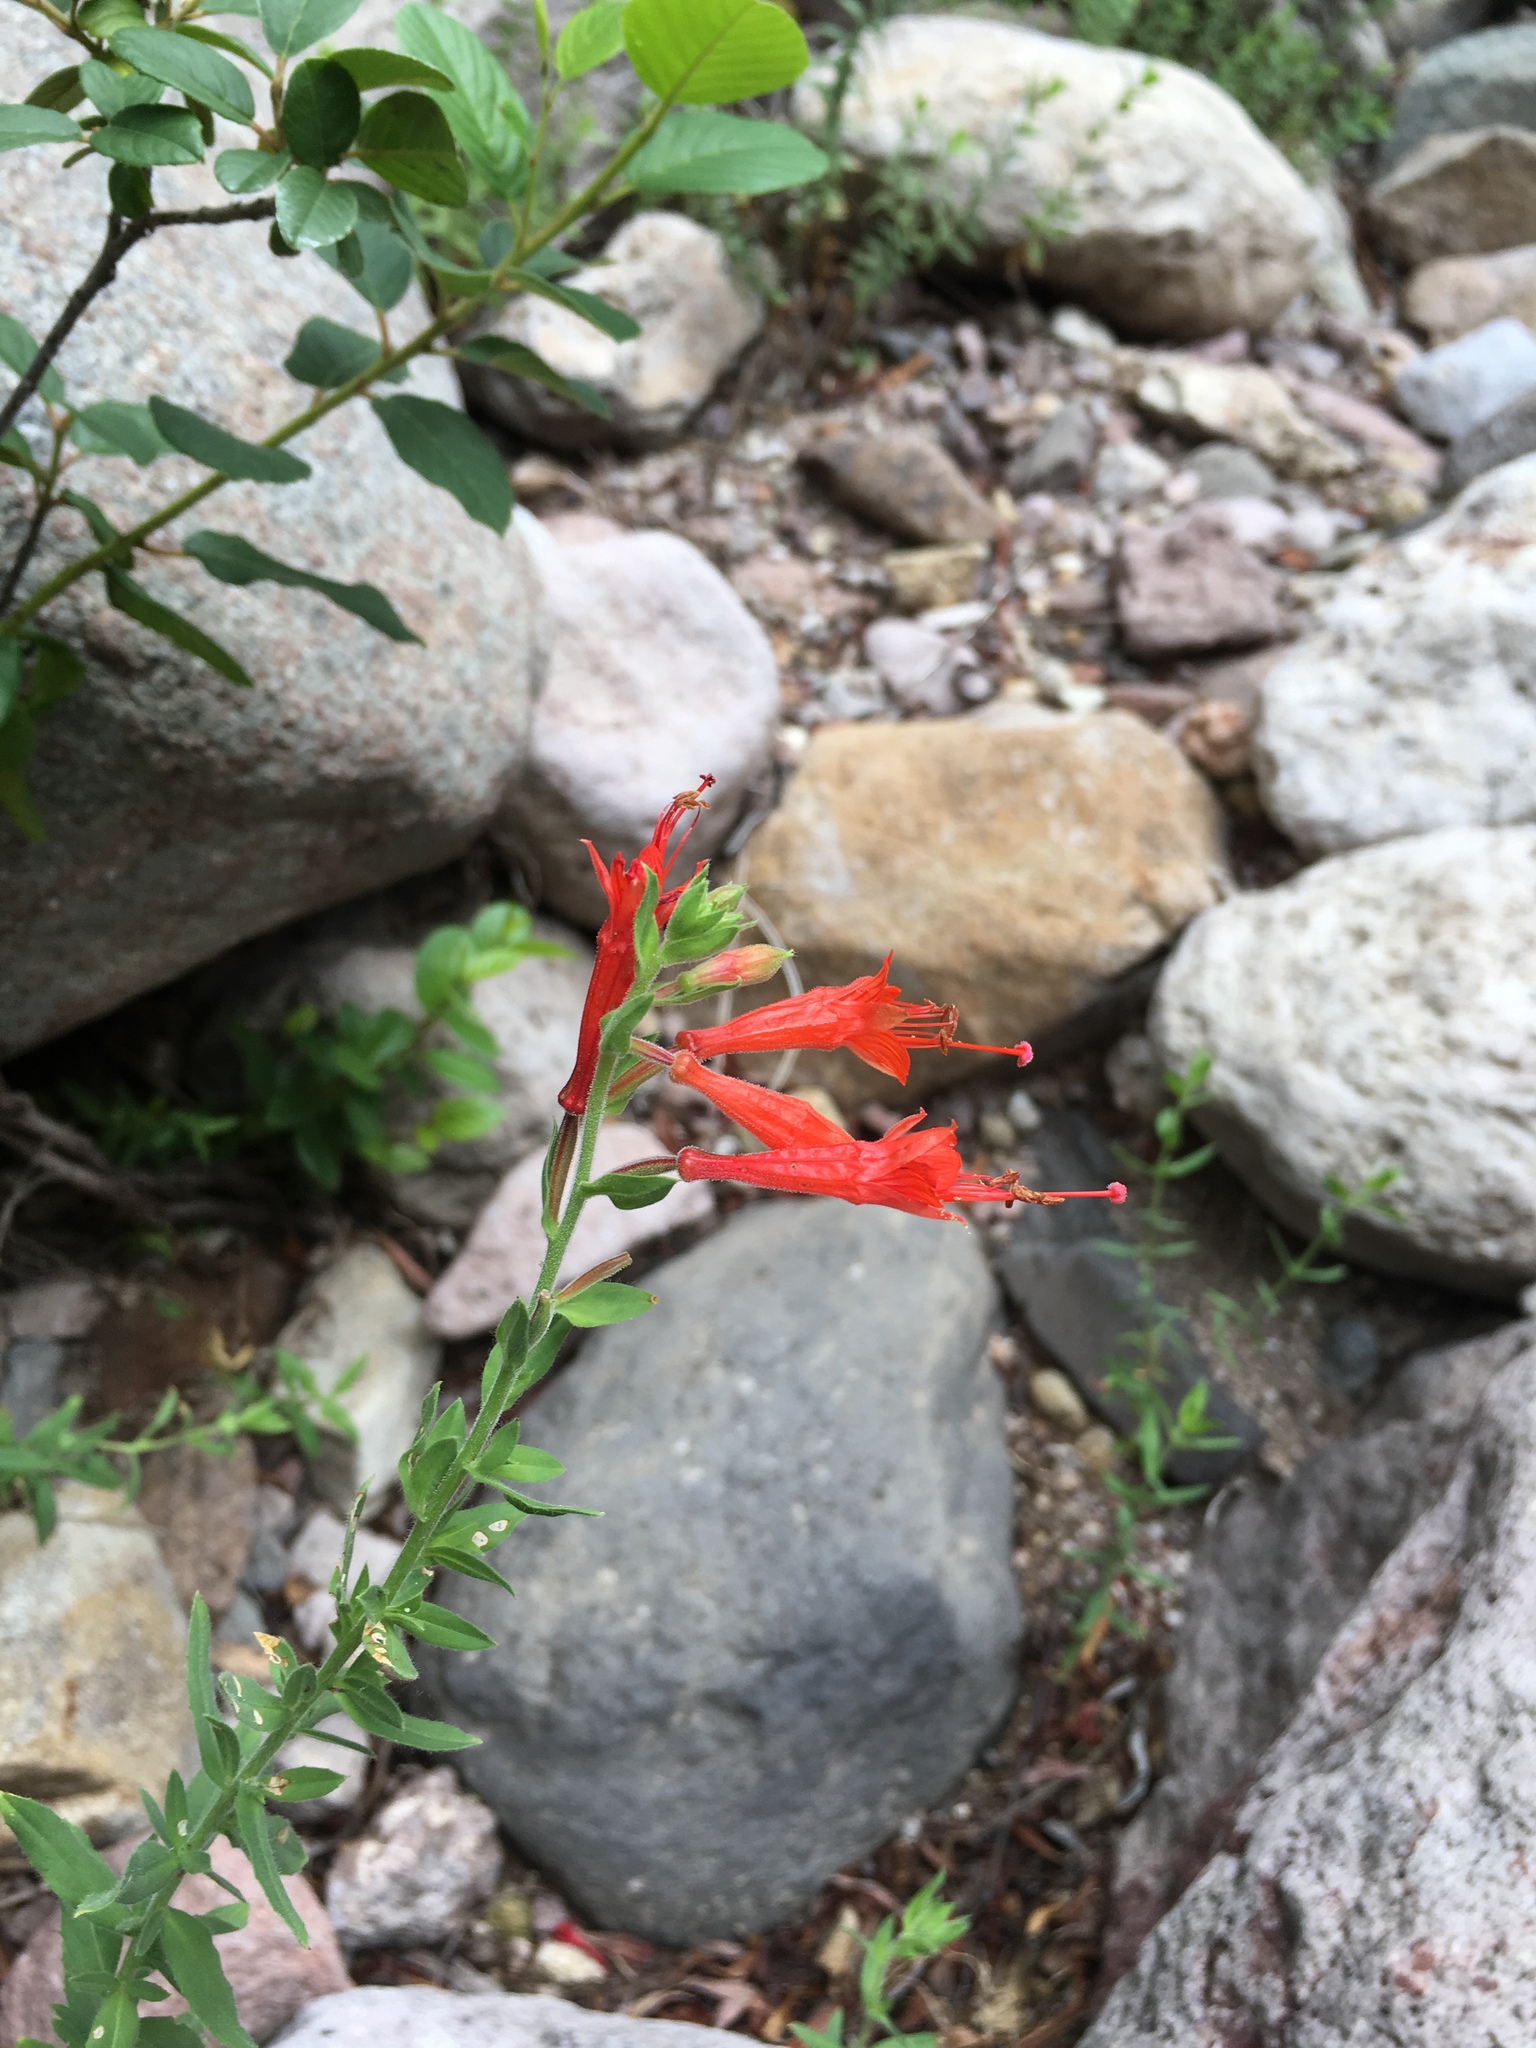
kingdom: Plantae
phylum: Tracheophyta
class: Magnoliopsida
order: Myrtales
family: Onagraceae
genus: Epilobium
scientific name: Epilobium canum
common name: California-fuchsia
